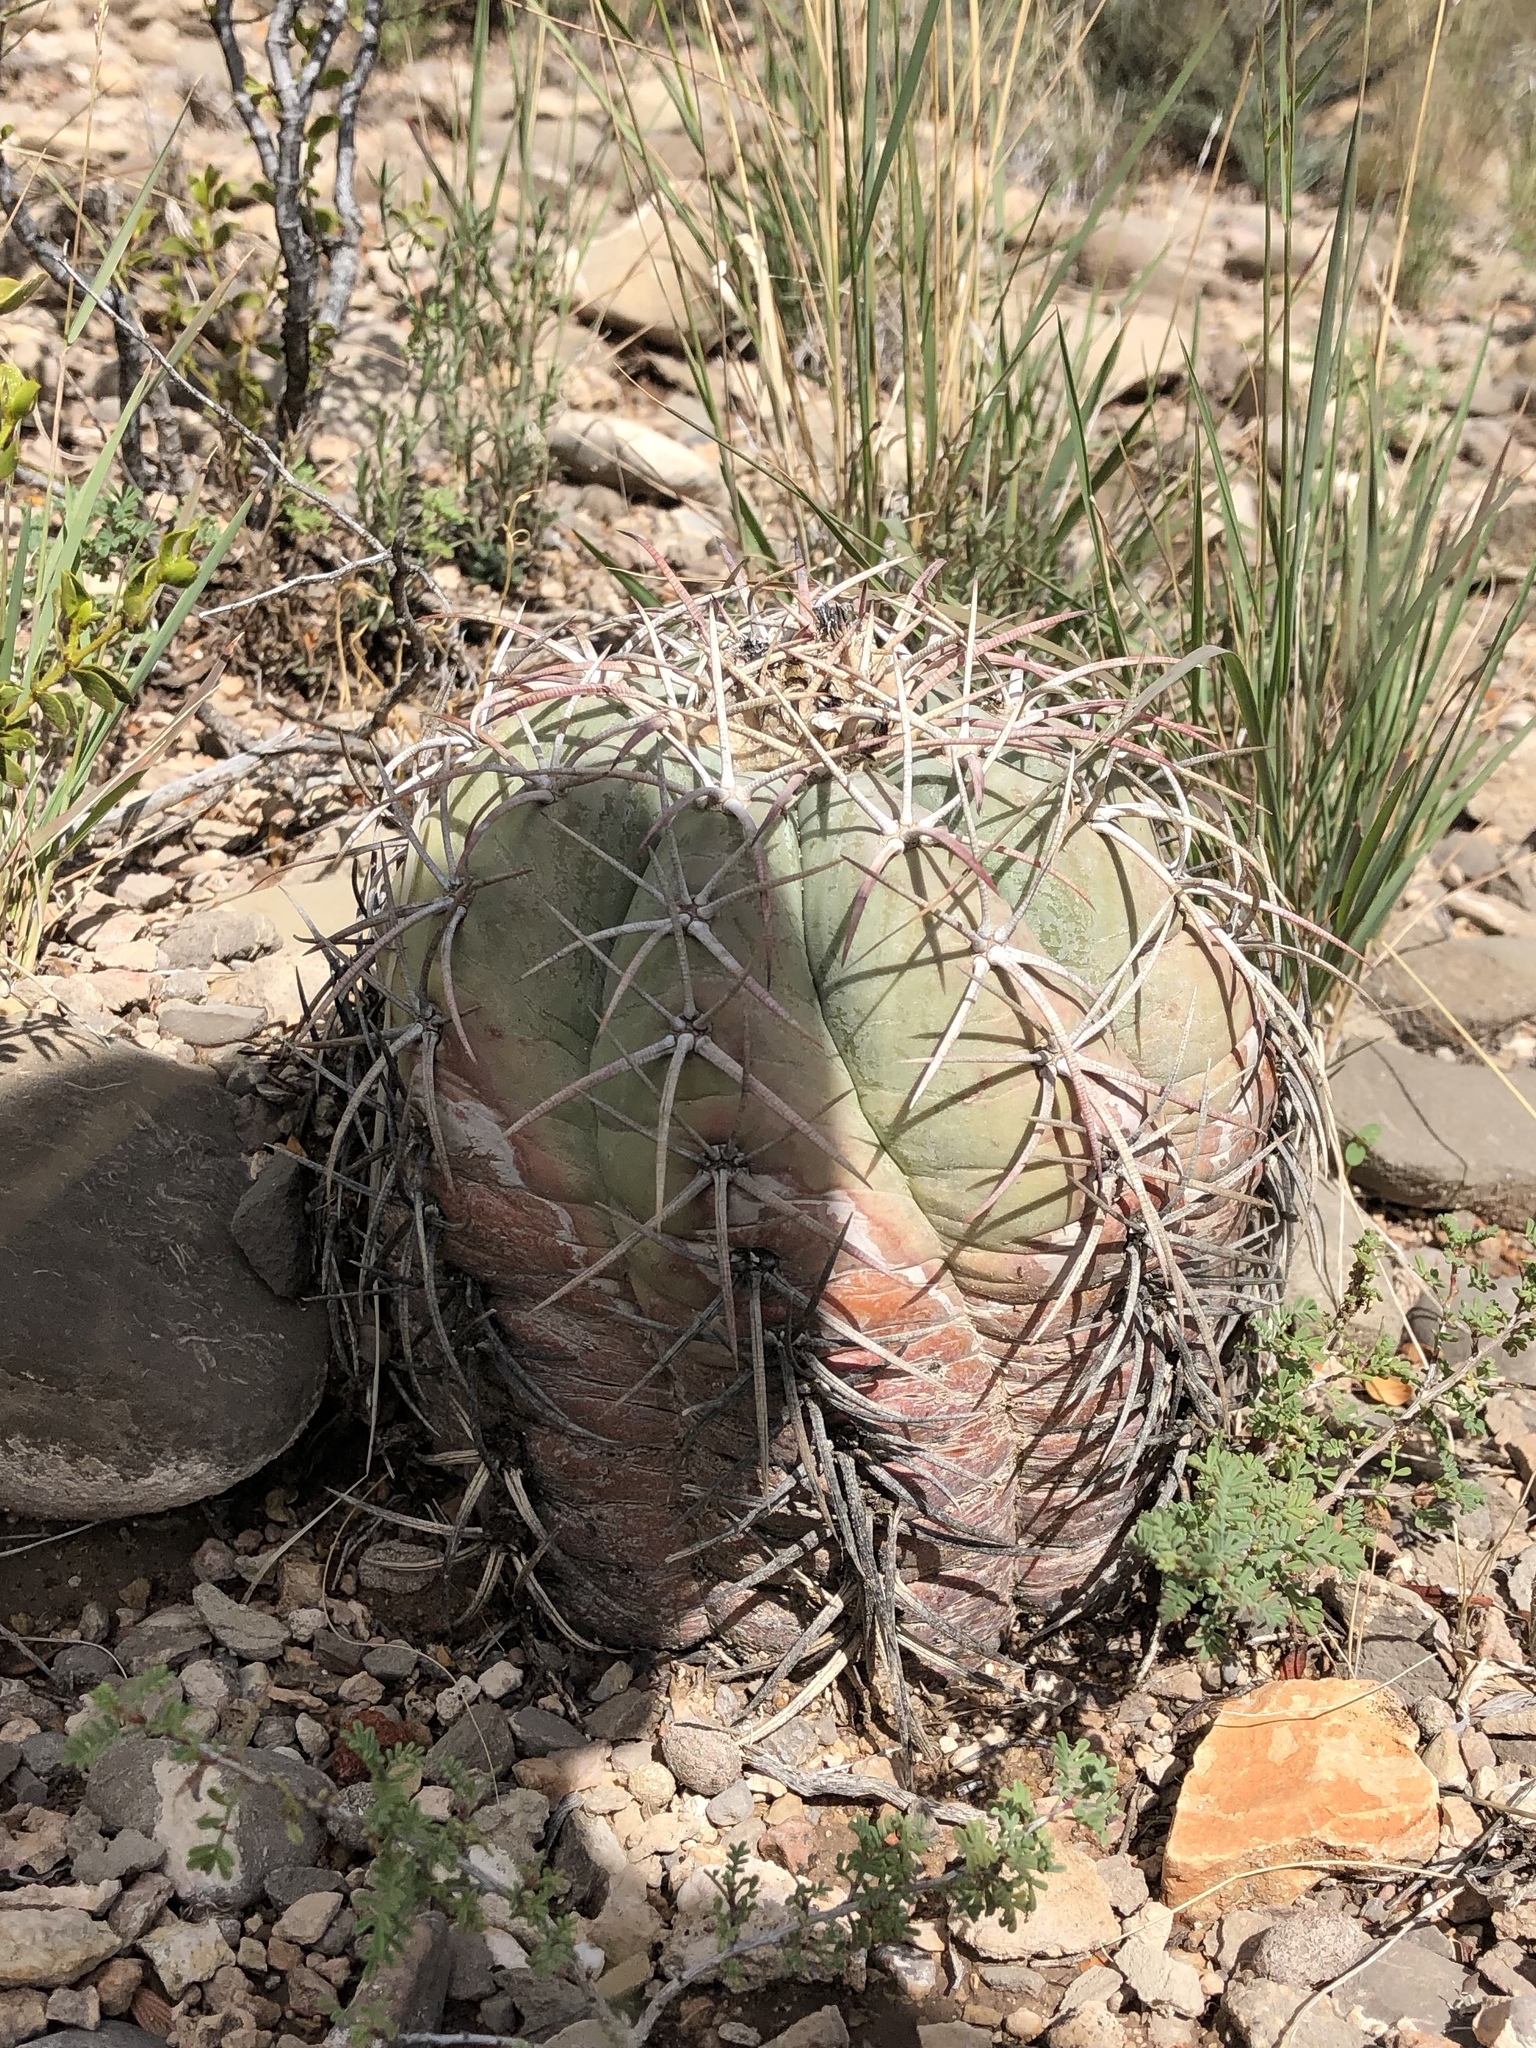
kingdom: Plantae
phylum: Tracheophyta
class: Magnoliopsida
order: Caryophyllales
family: Cactaceae
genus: Echinocactus
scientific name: Echinocactus horizonthalonius
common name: Devilshead
